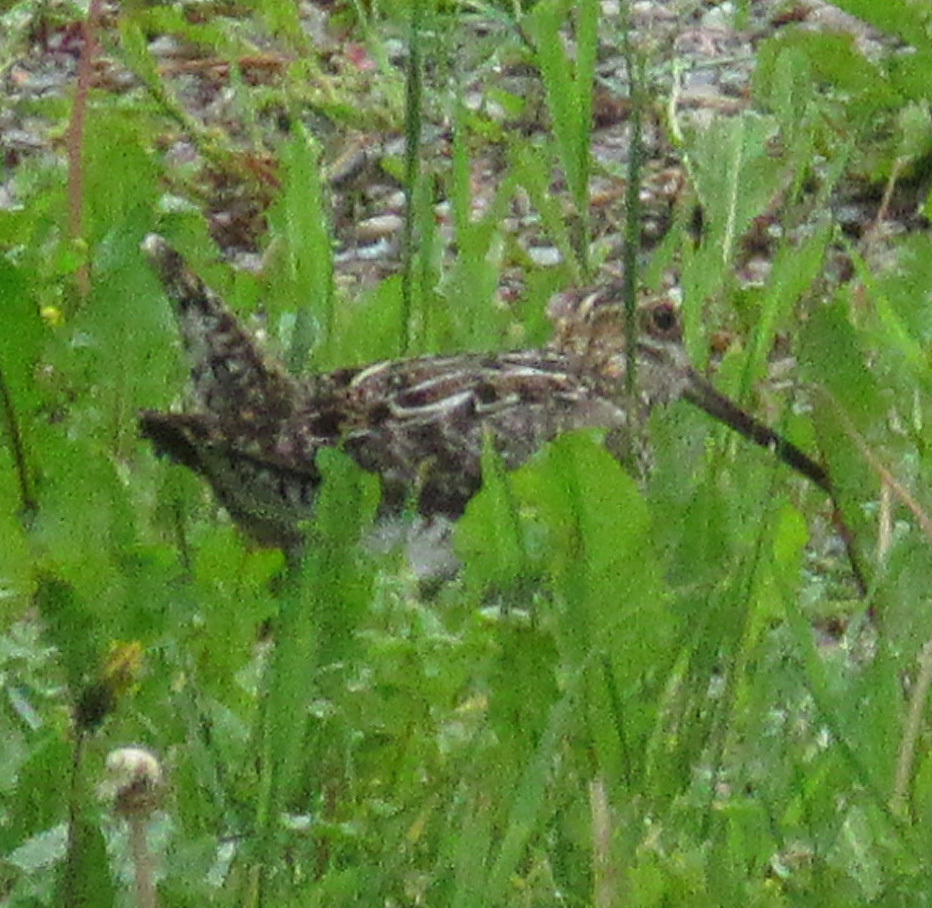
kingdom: Animalia
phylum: Chordata
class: Aves
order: Charadriiformes
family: Scolopacidae
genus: Gallinago
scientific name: Gallinago delicata
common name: Wilson's snipe
